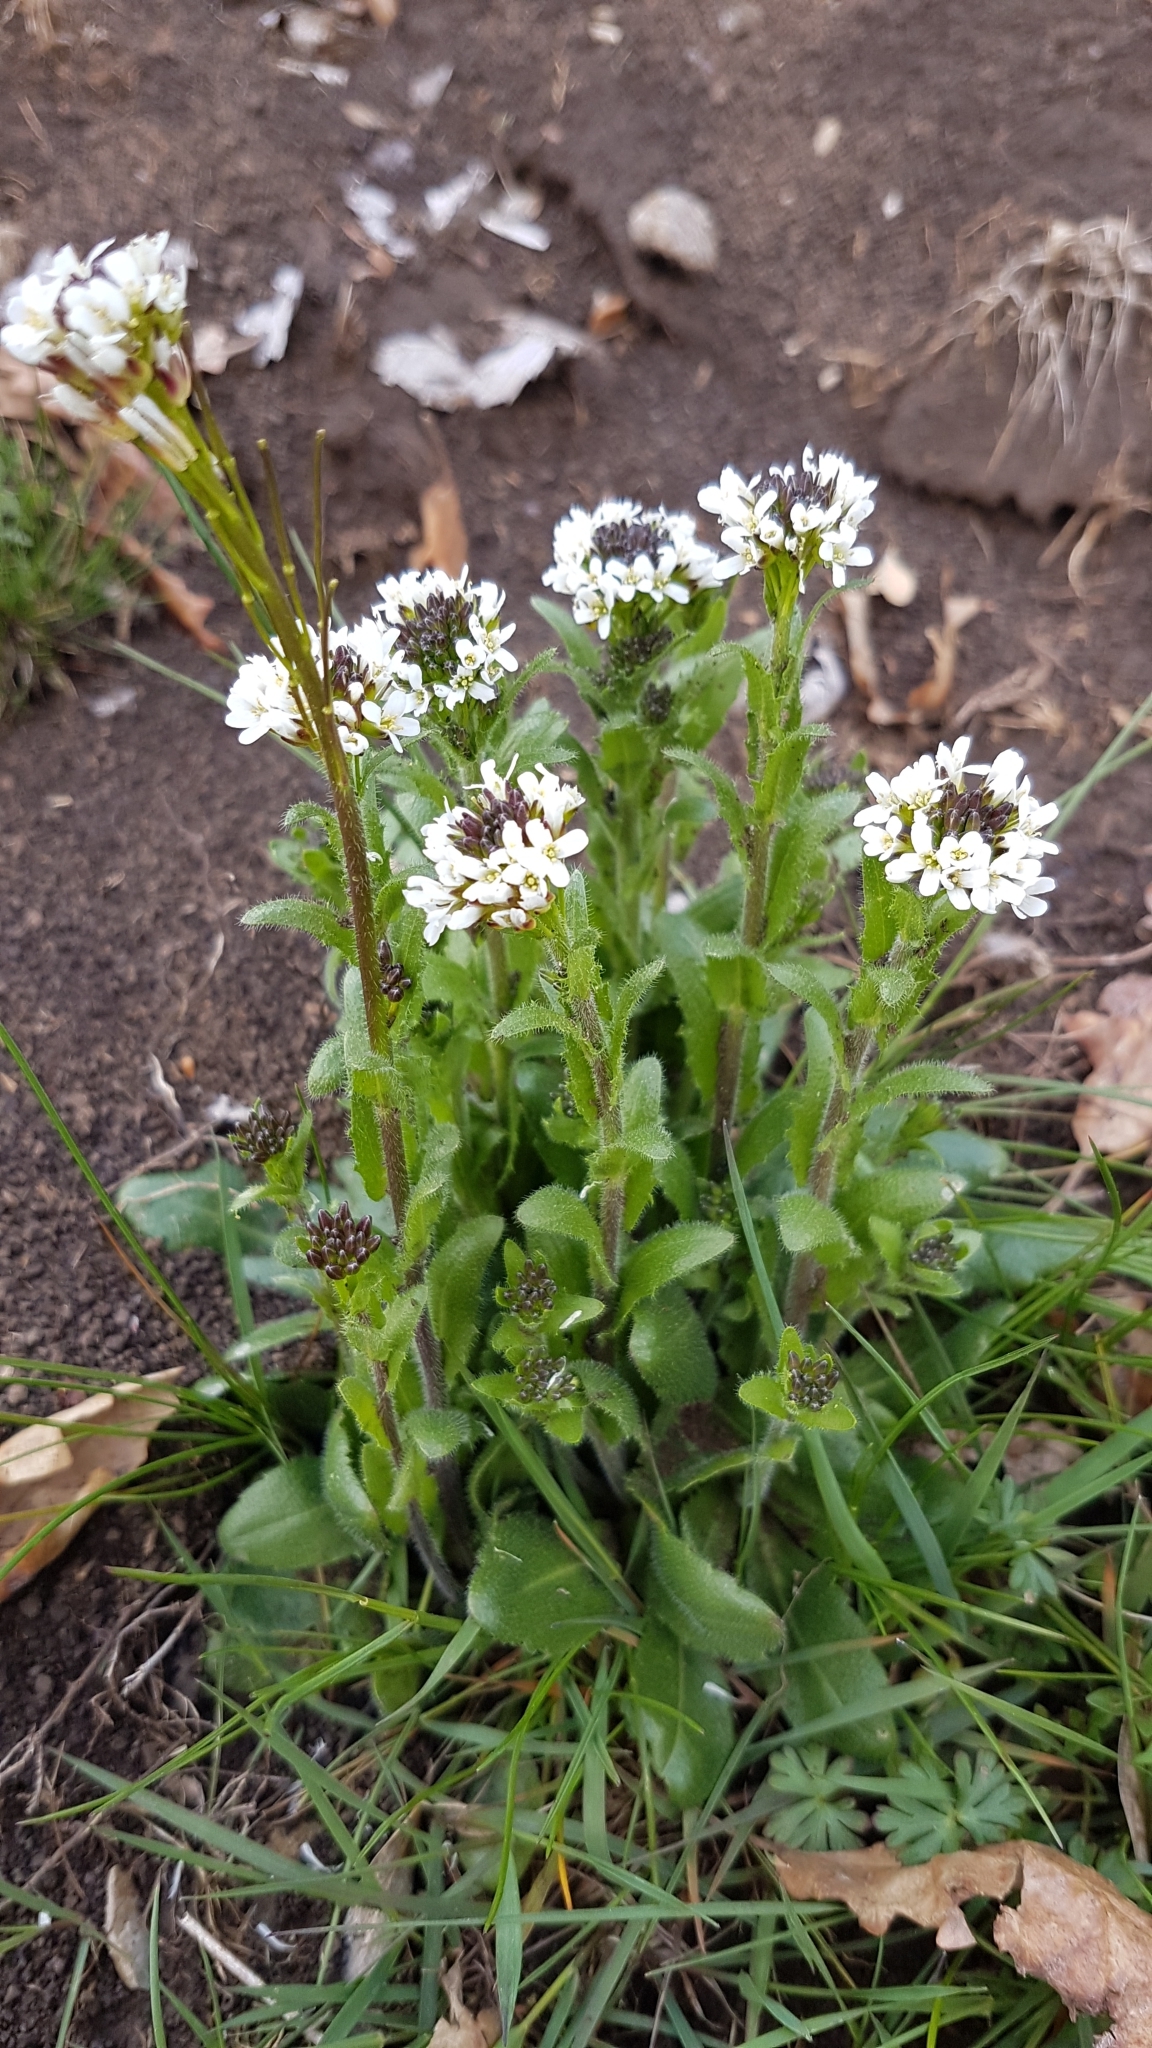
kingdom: Plantae
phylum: Tracheophyta
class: Magnoliopsida
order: Brassicales
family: Brassicaceae
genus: Arabis
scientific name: Arabis hirsuta
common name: Hairy rock-cress
